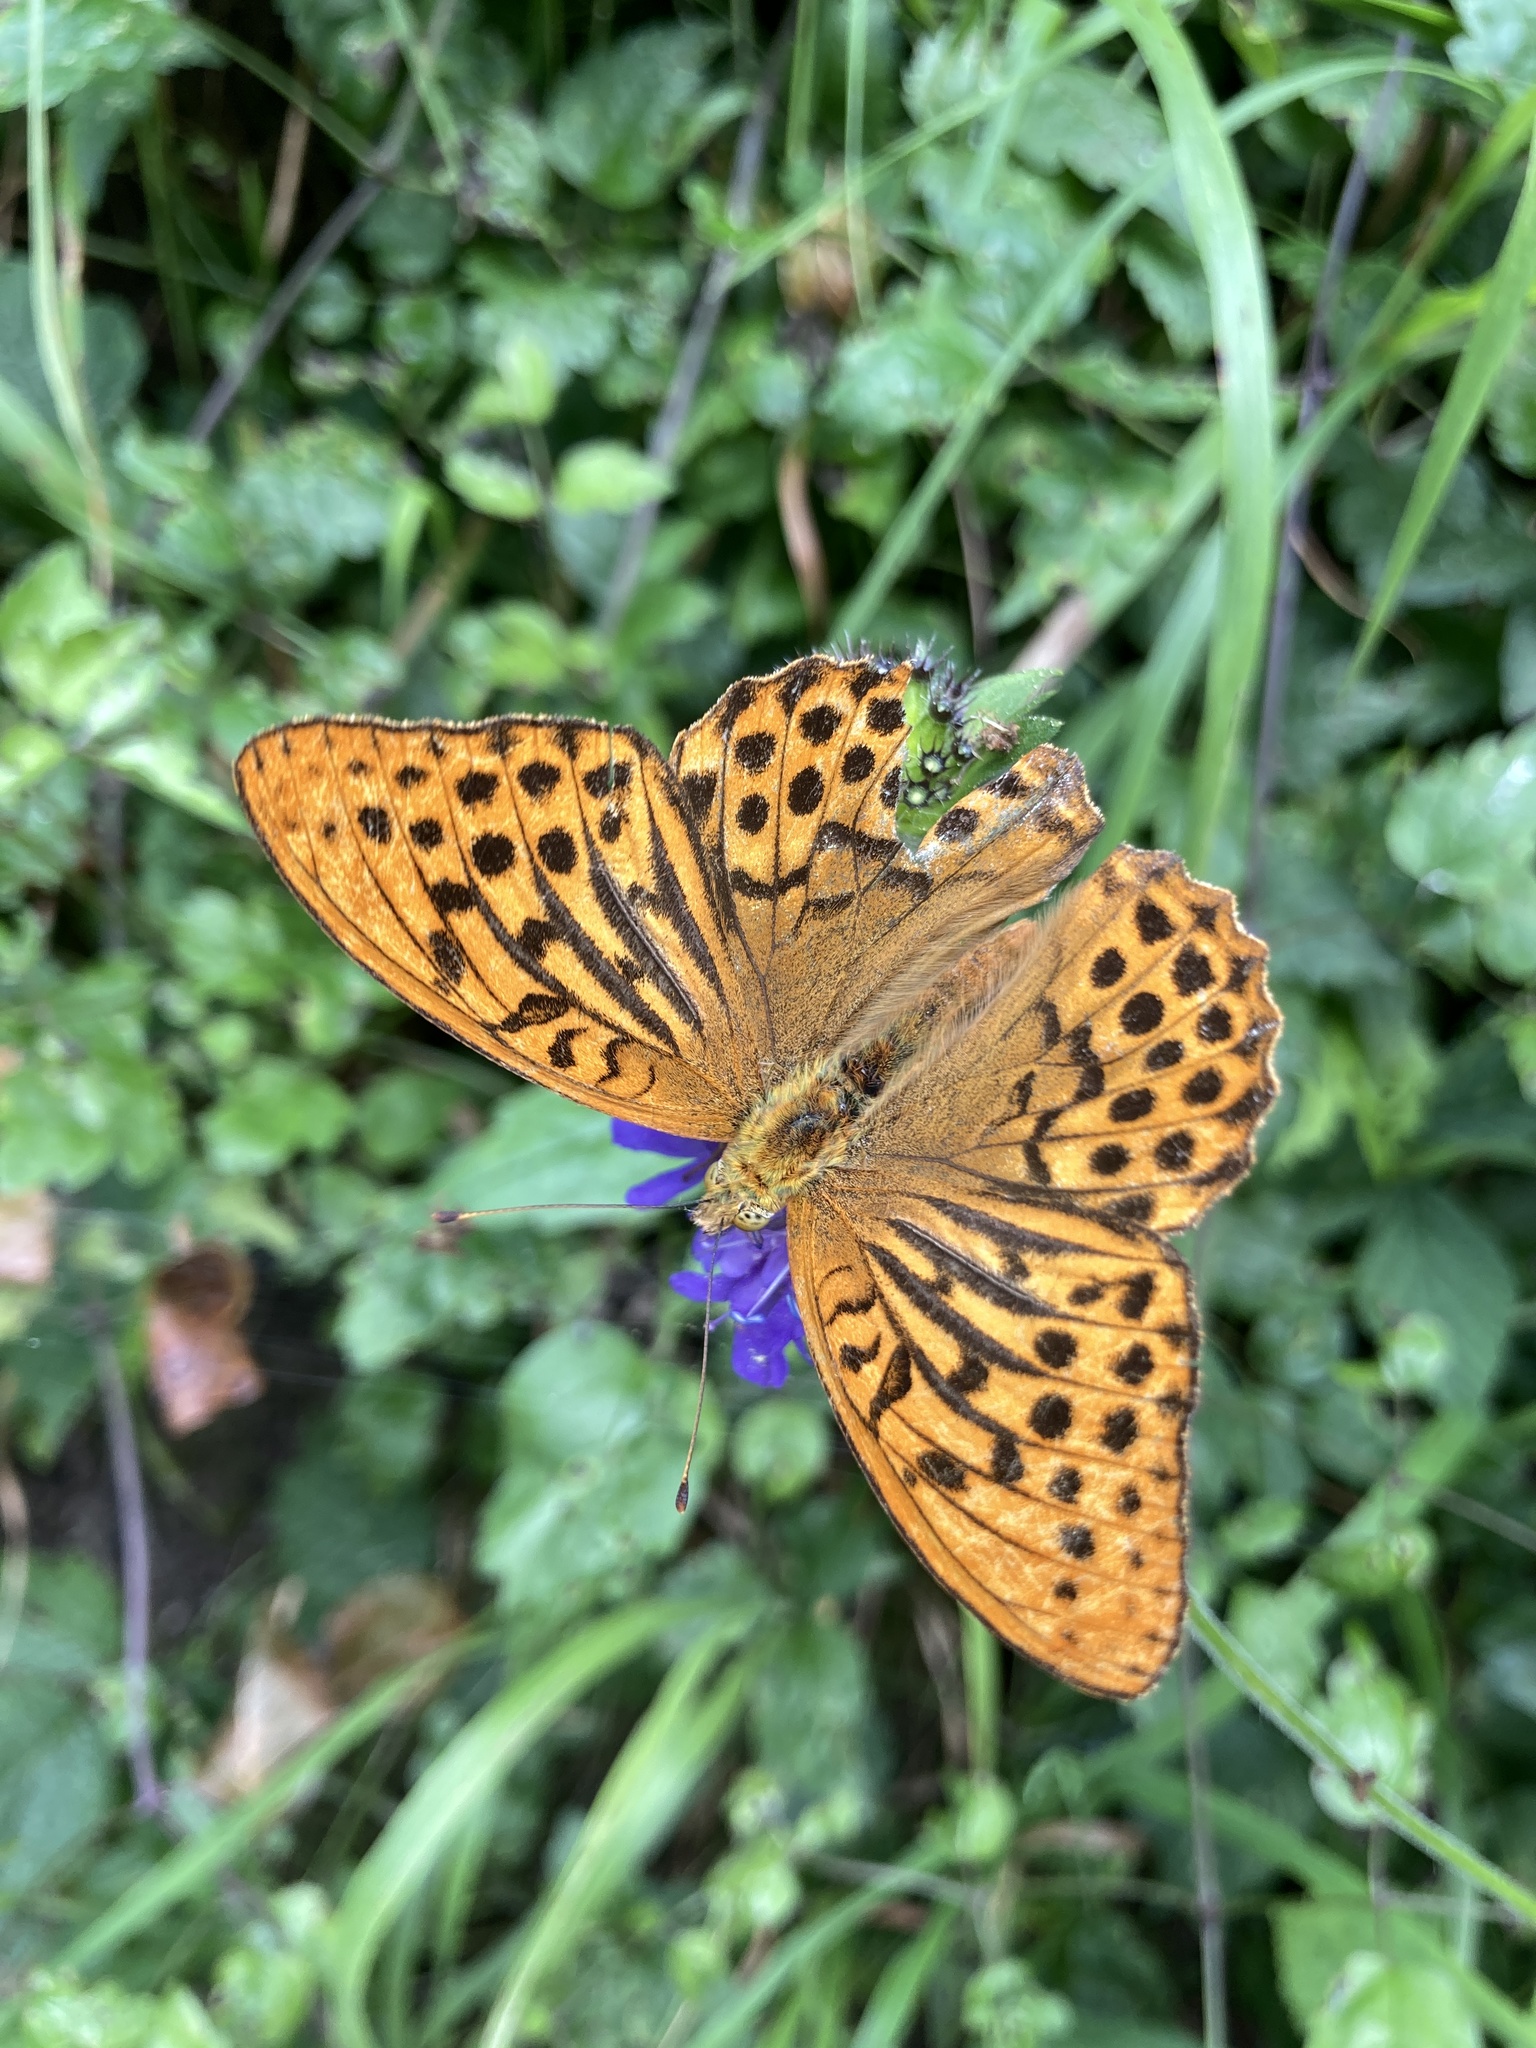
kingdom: Animalia
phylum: Arthropoda
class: Insecta
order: Lepidoptera
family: Nymphalidae
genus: Argynnis
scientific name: Argynnis paphia
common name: Silver-washed fritillary
